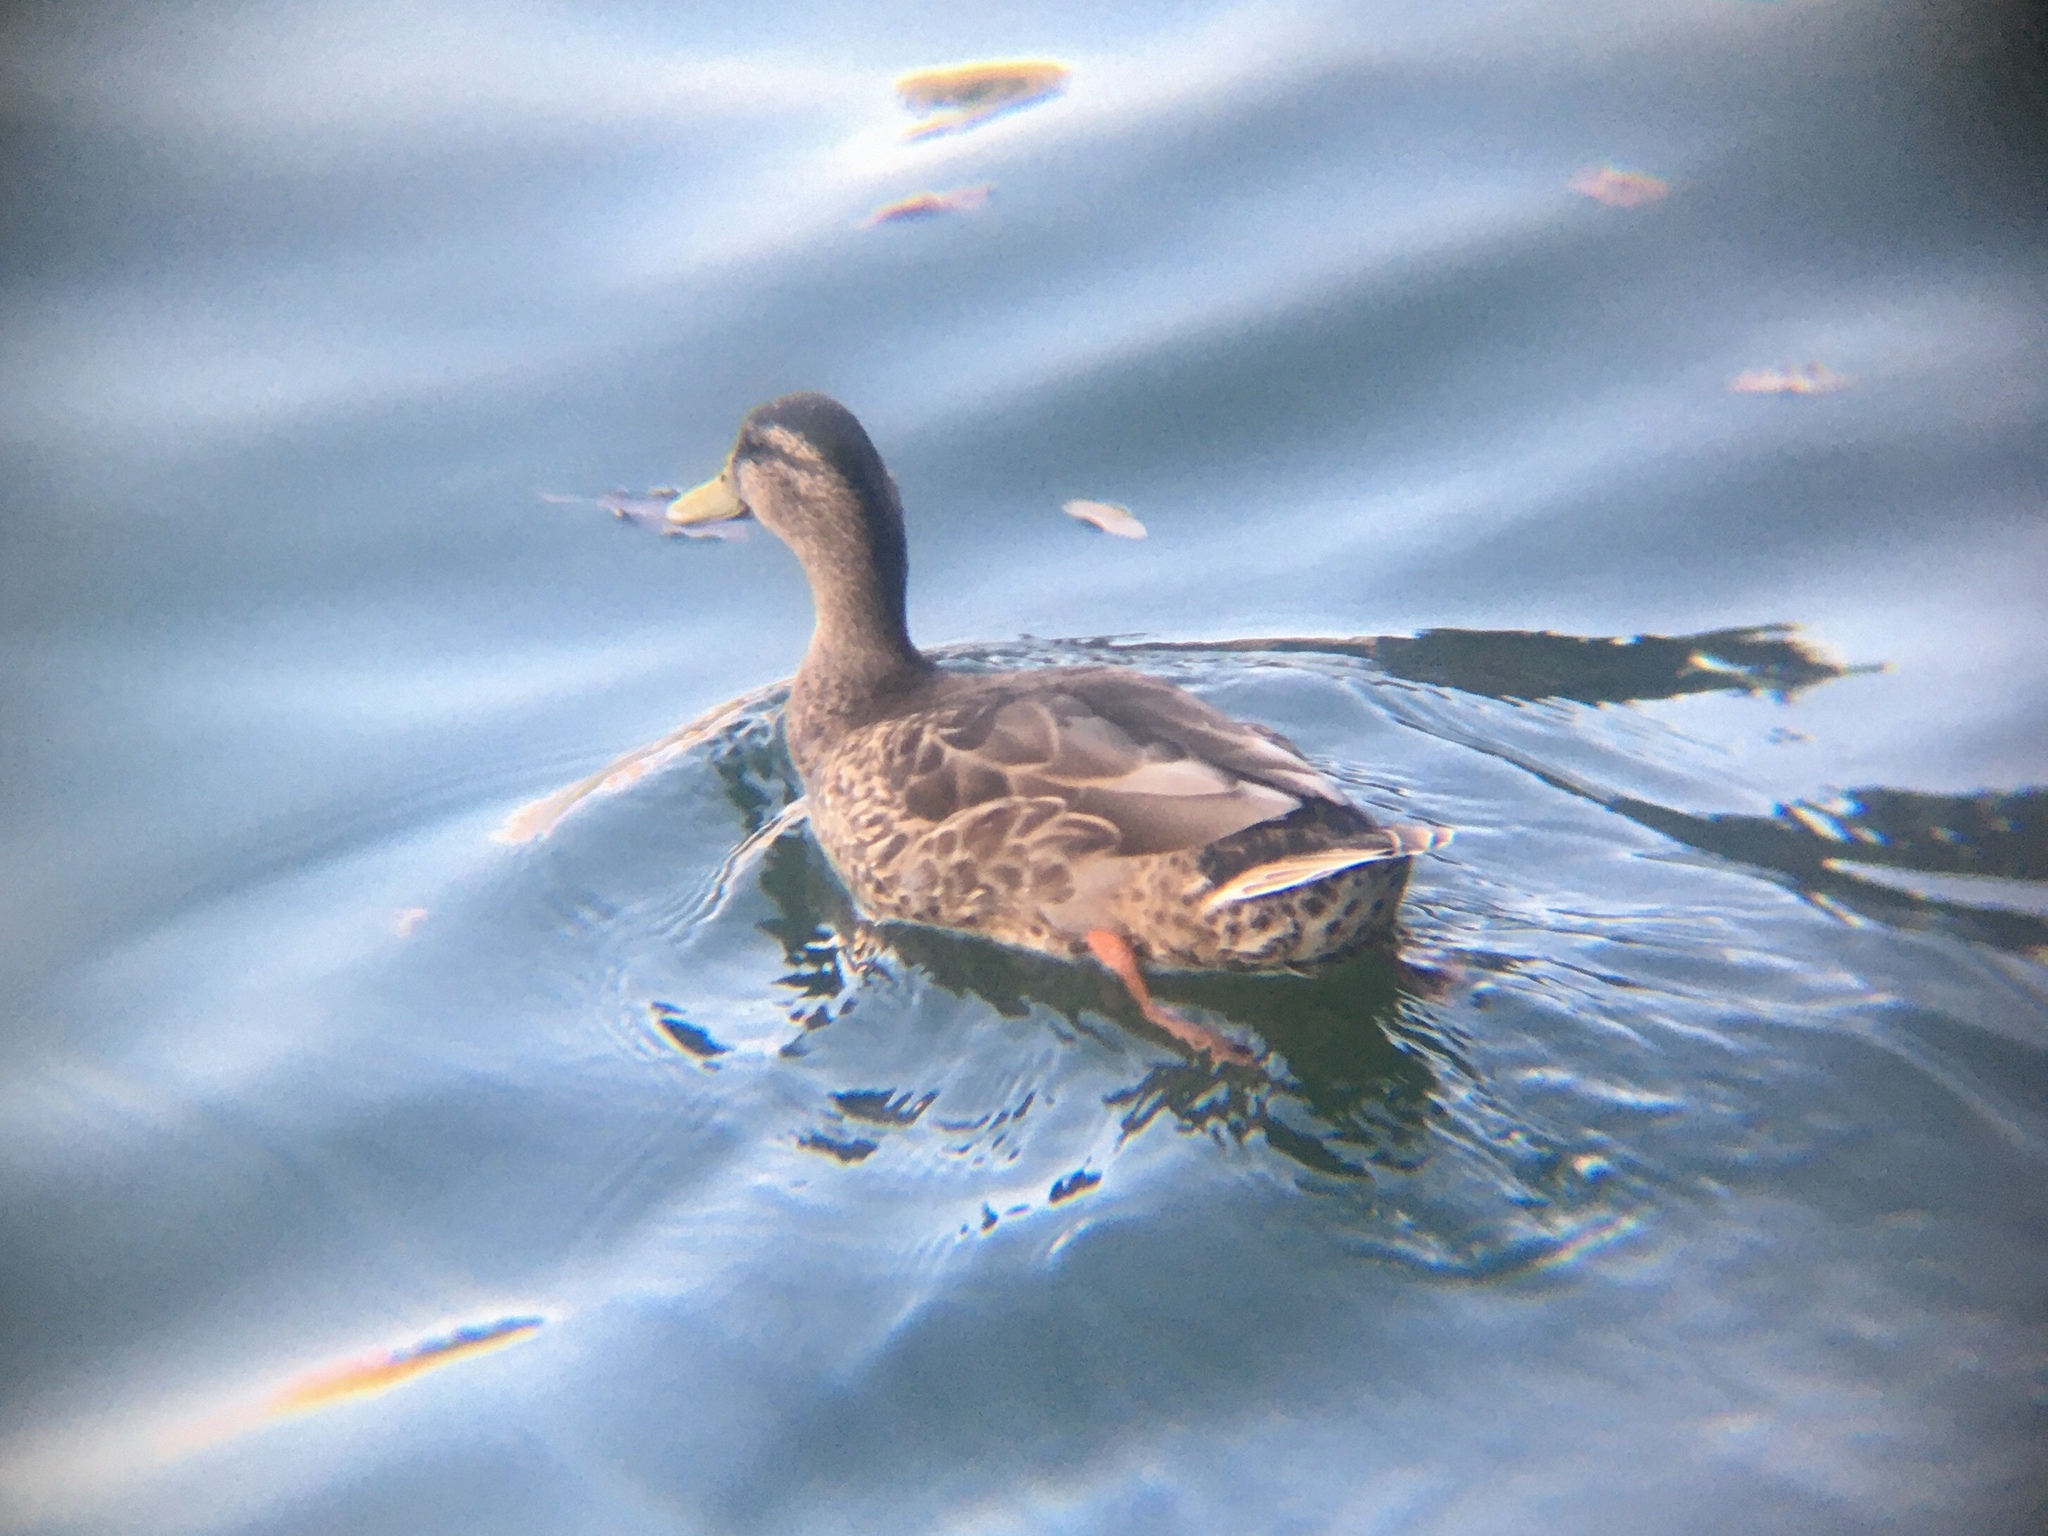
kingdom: Animalia
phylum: Chordata
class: Aves
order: Anseriformes
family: Anatidae
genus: Anas
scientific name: Anas platyrhynchos
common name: Mallard
